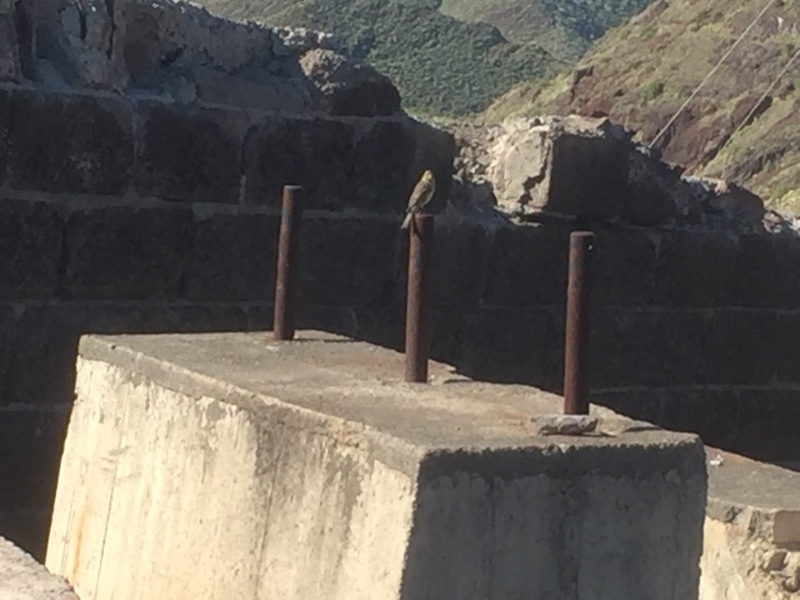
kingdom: Animalia
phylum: Chordata
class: Aves
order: Passeriformes
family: Fringillidae
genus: Serinus
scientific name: Serinus canaria
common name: Atlantic canary
